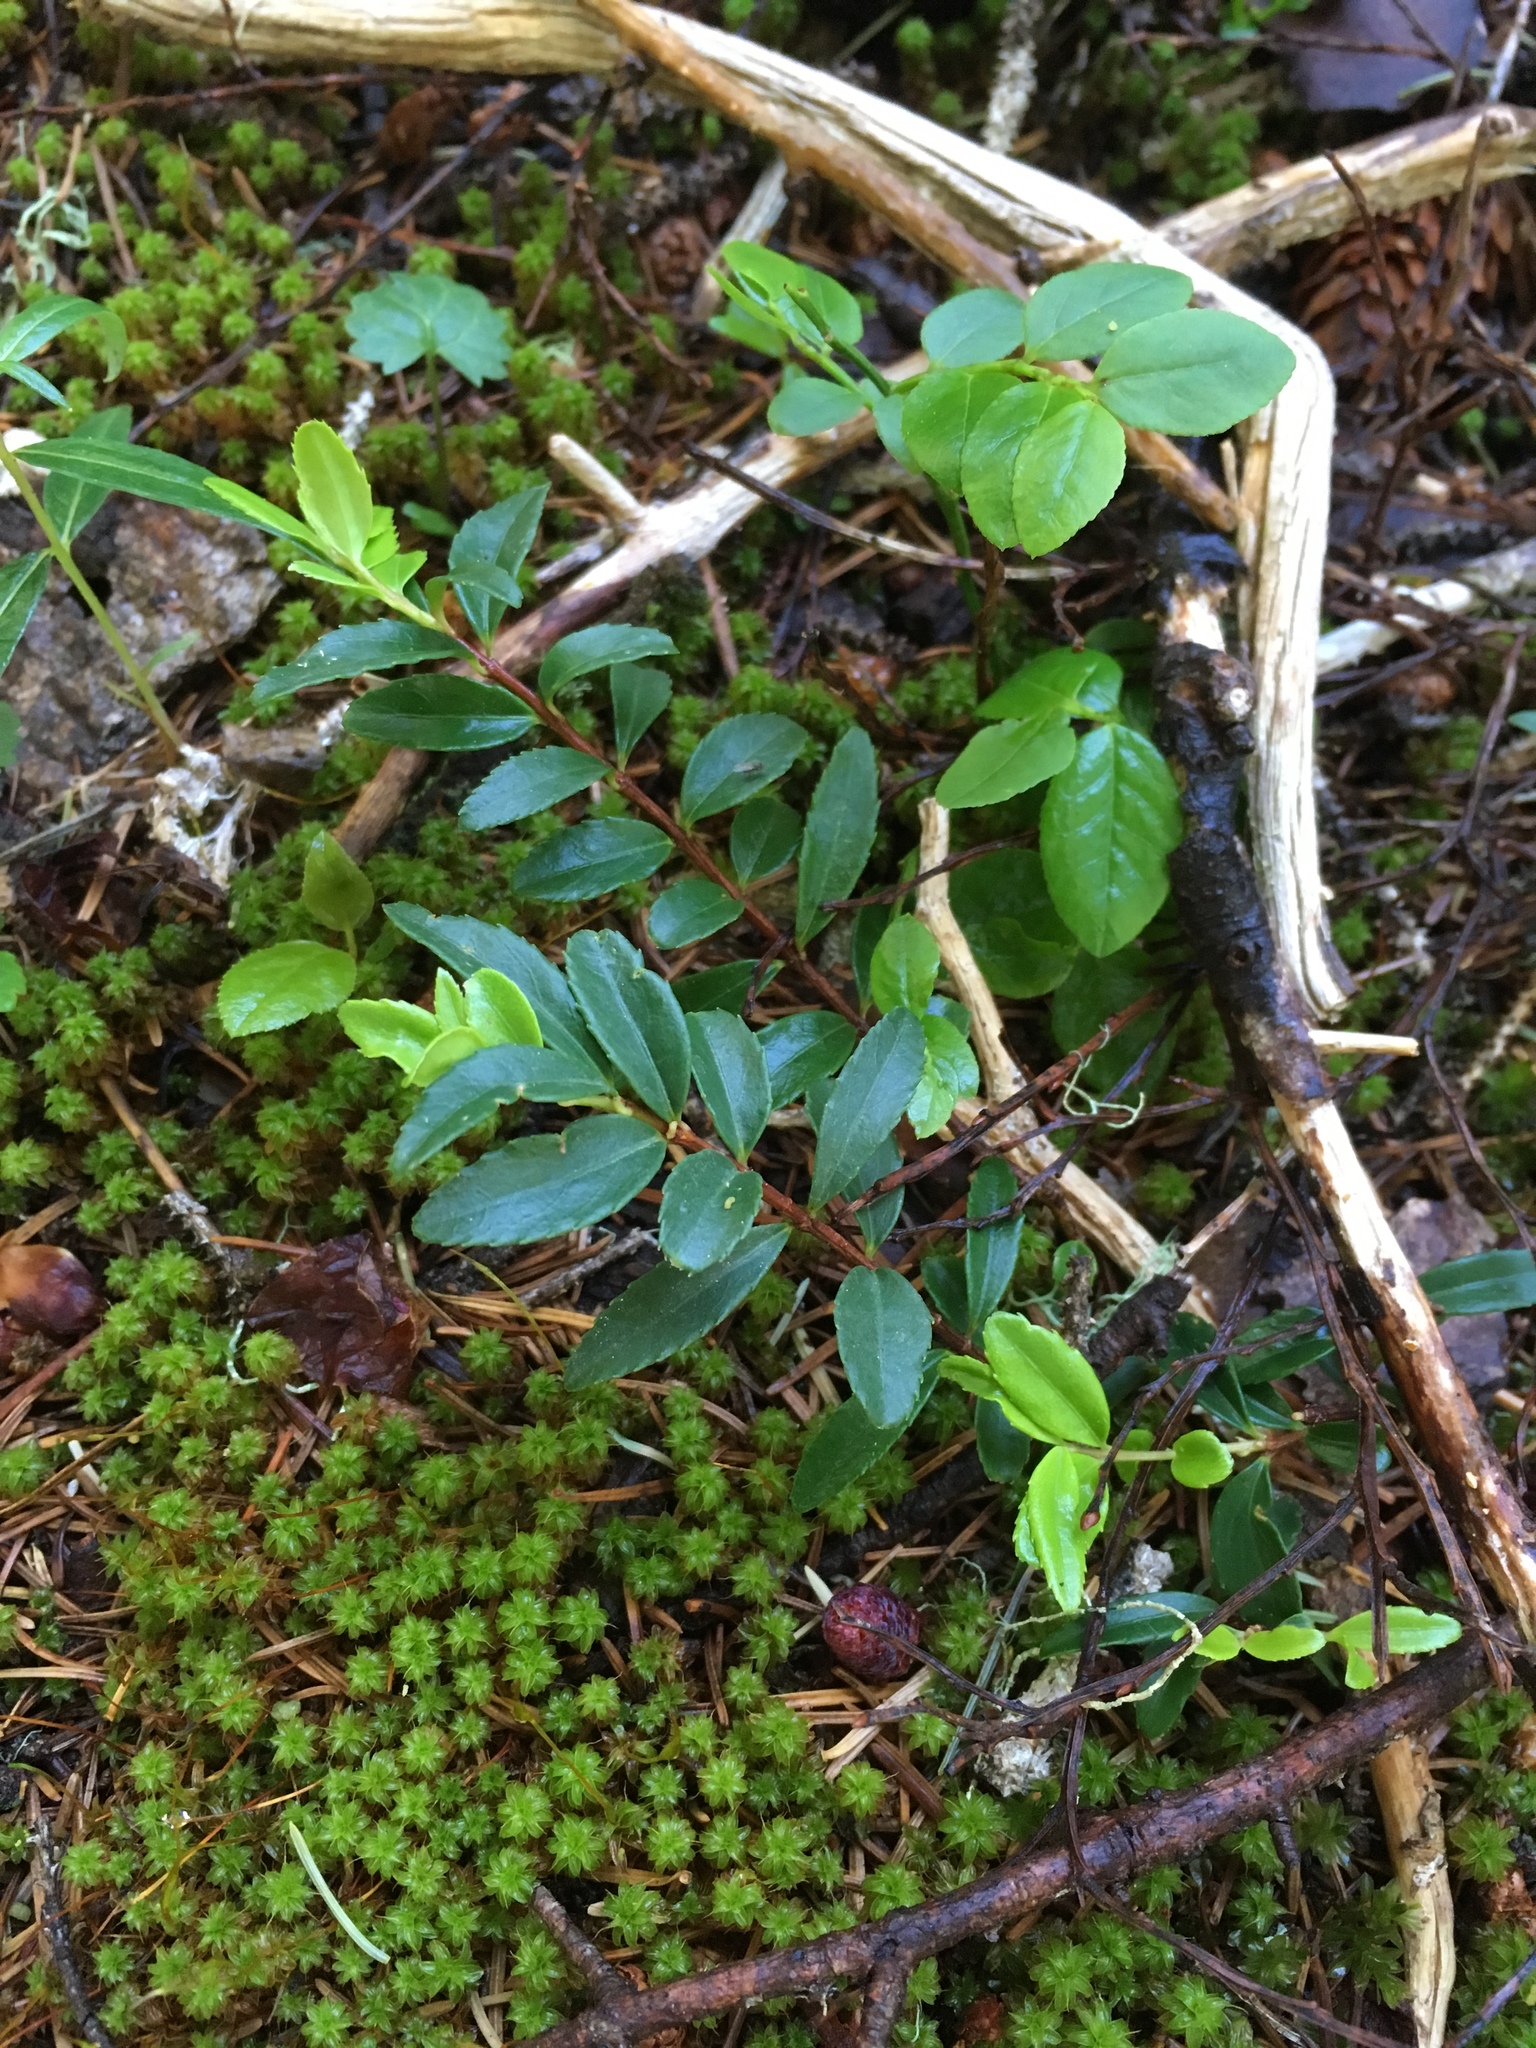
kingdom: Plantae
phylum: Tracheophyta
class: Magnoliopsida
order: Celastrales
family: Celastraceae
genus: Paxistima
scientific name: Paxistima myrsinites
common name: Mountain-lover
